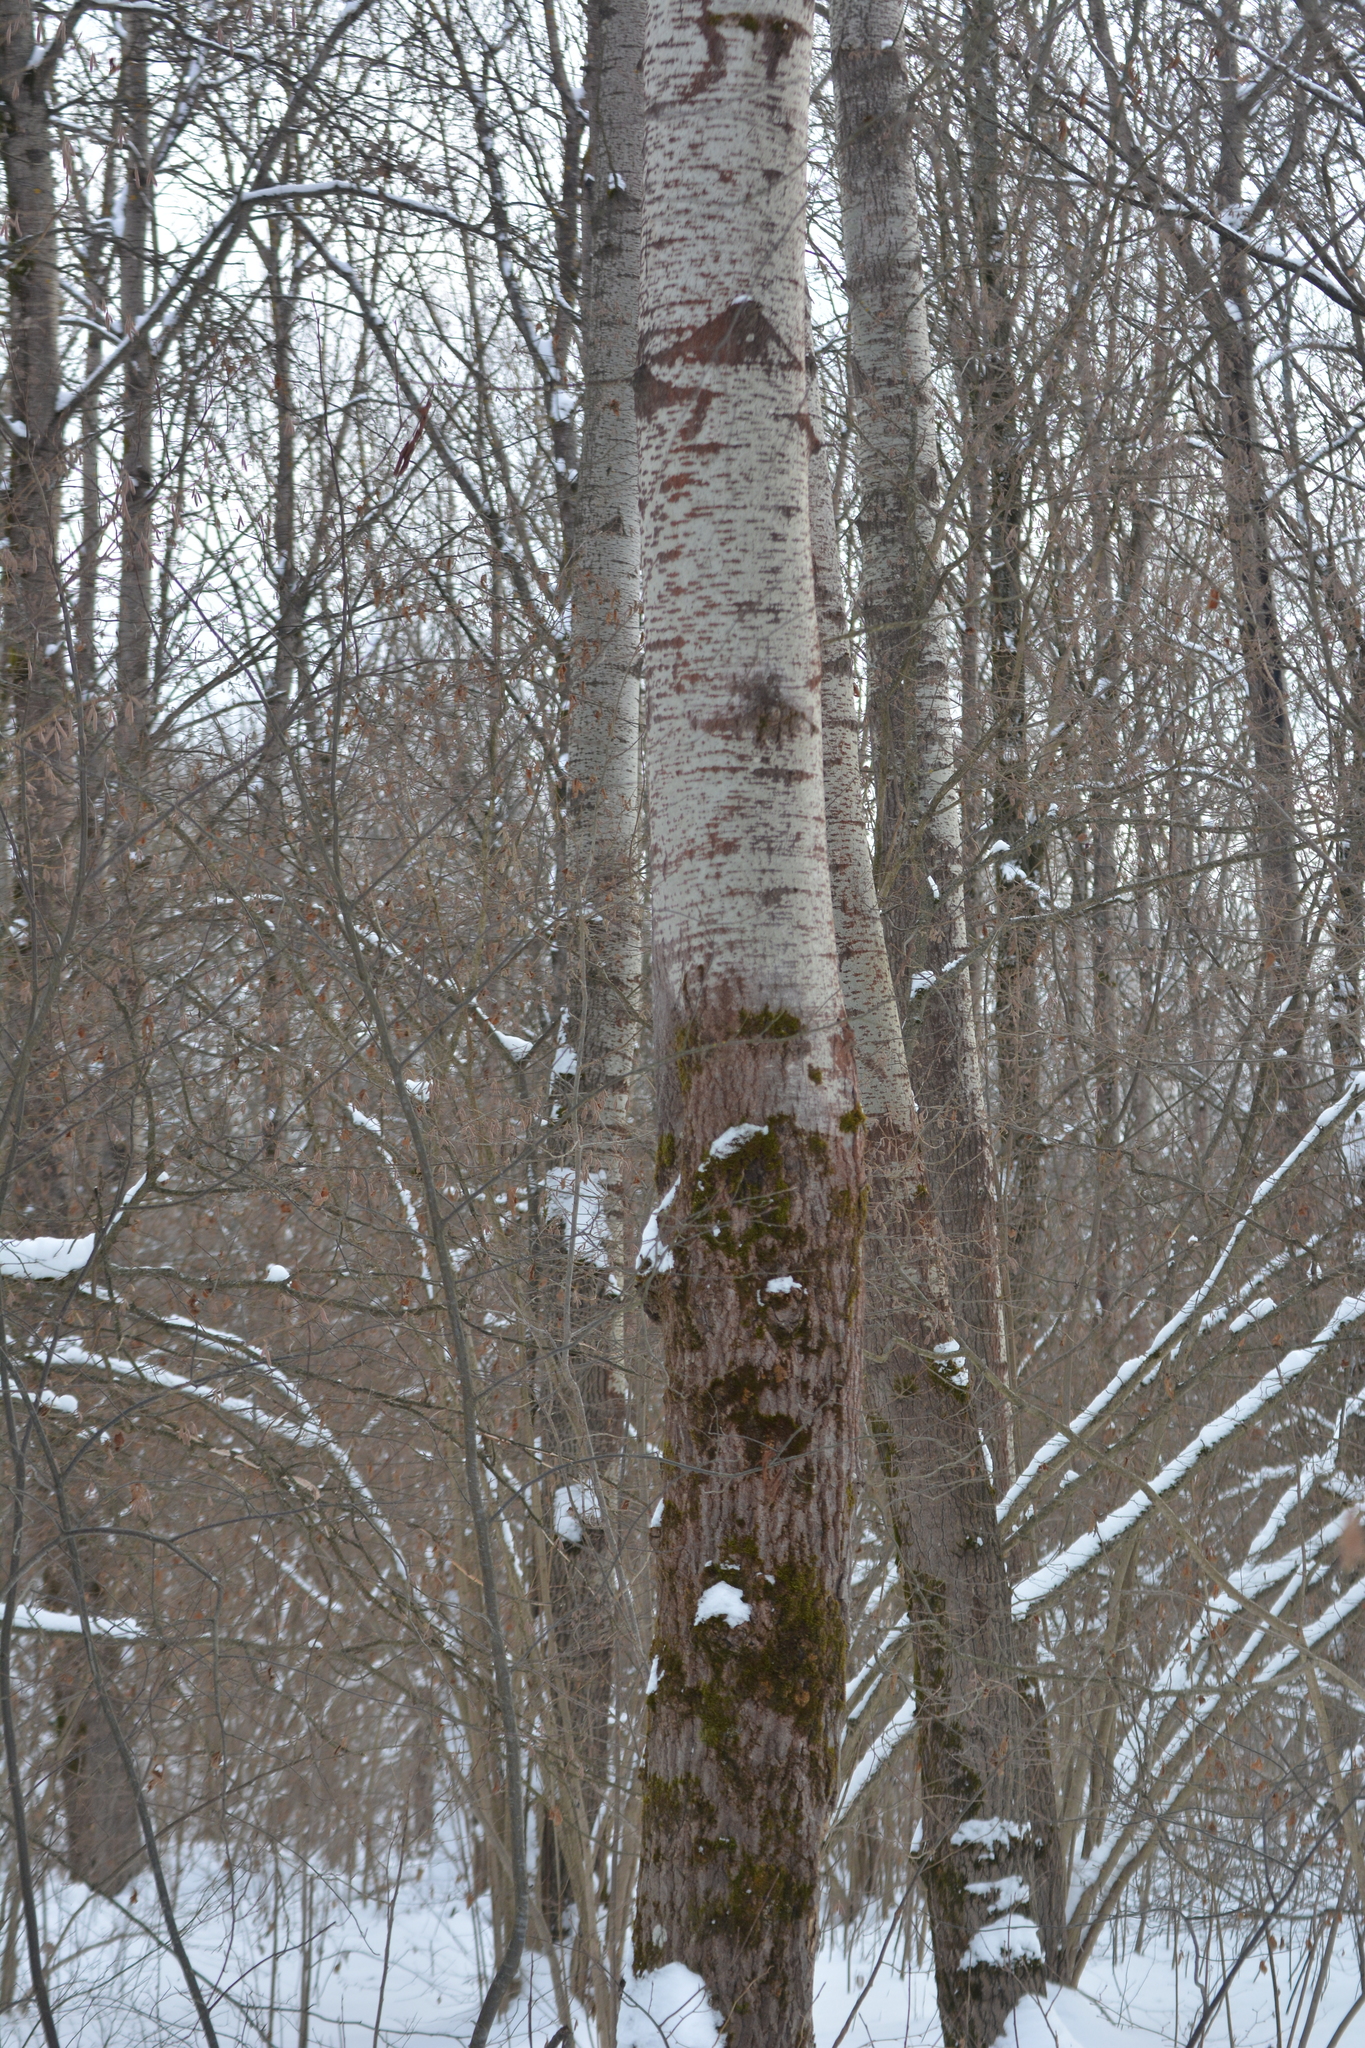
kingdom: Plantae
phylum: Tracheophyta
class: Magnoliopsida
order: Malpighiales
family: Salicaceae
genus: Populus
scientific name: Populus tremula
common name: European aspen
